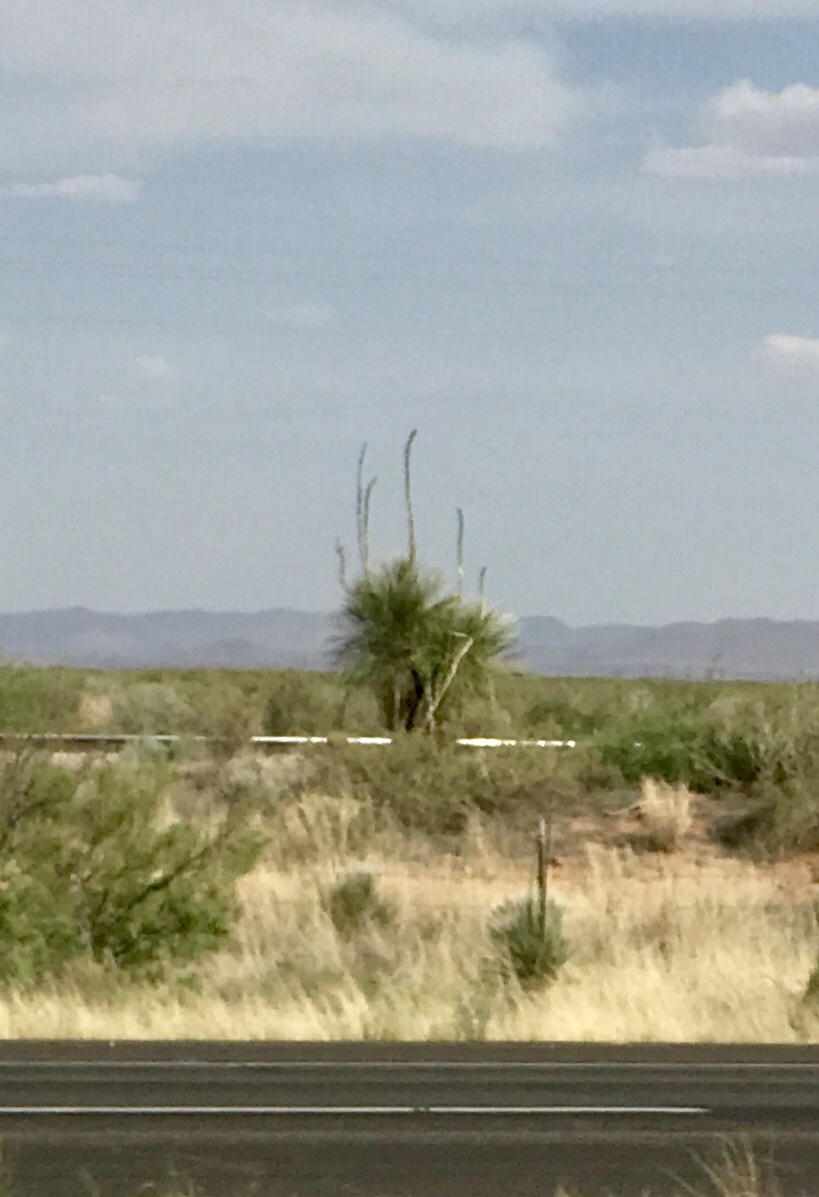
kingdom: Plantae
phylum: Tracheophyta
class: Liliopsida
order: Asparagales
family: Asparagaceae
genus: Yucca
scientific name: Yucca elata
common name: Palmella
